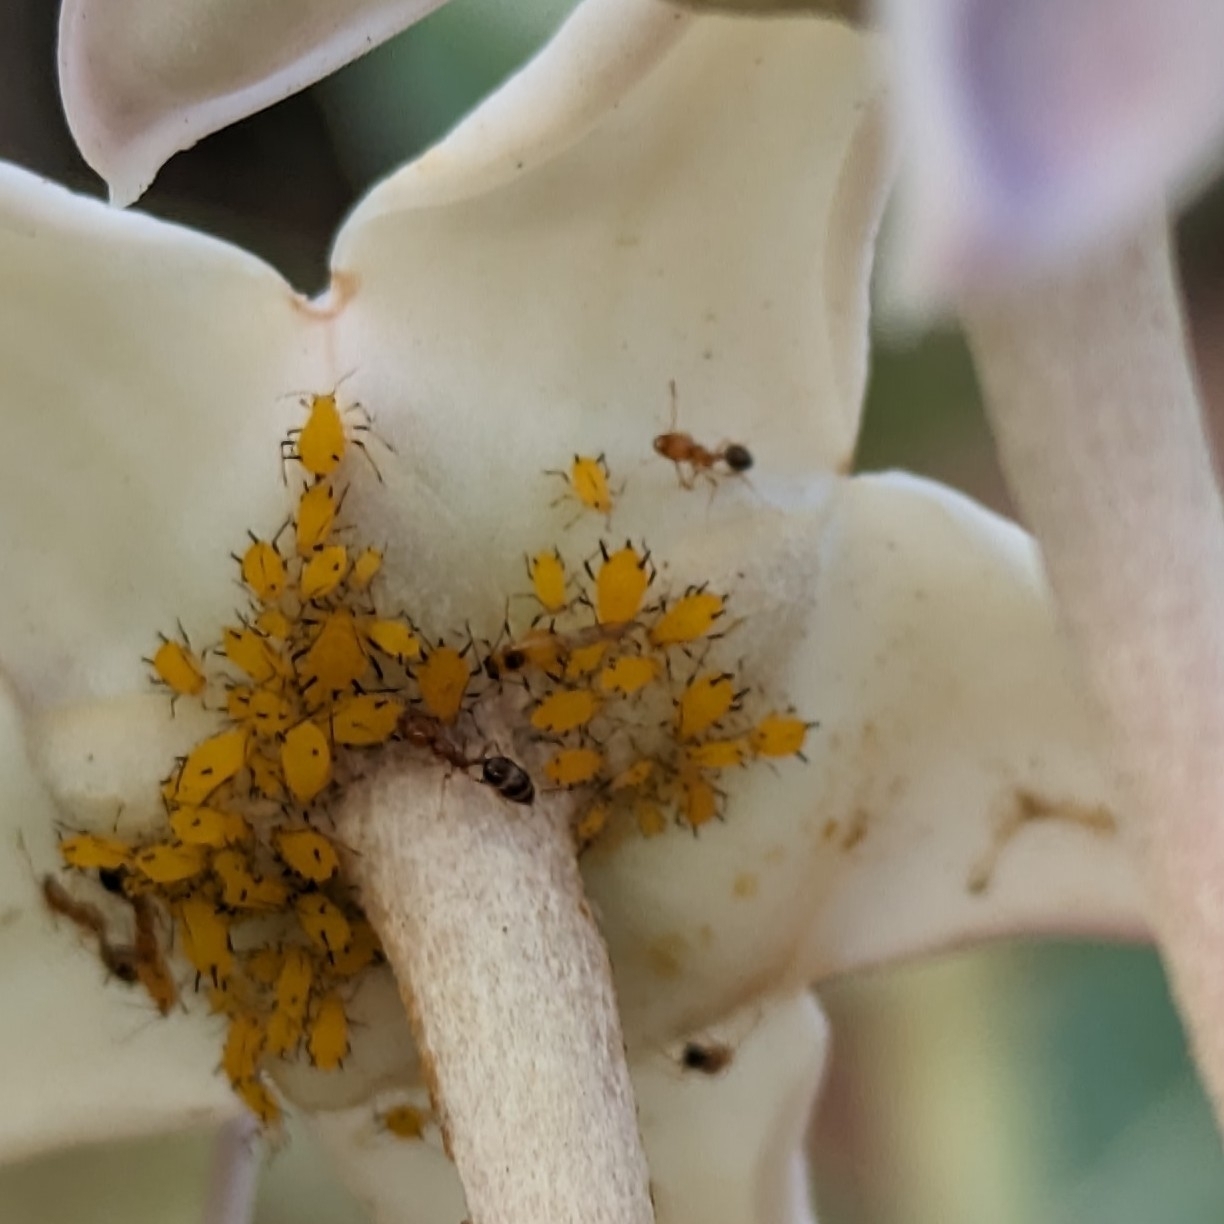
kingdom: Animalia
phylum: Arthropoda
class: Insecta
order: Hymenoptera
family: Formicidae
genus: Monomorium
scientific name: Monomorium destructor
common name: Destructive trailing ant
